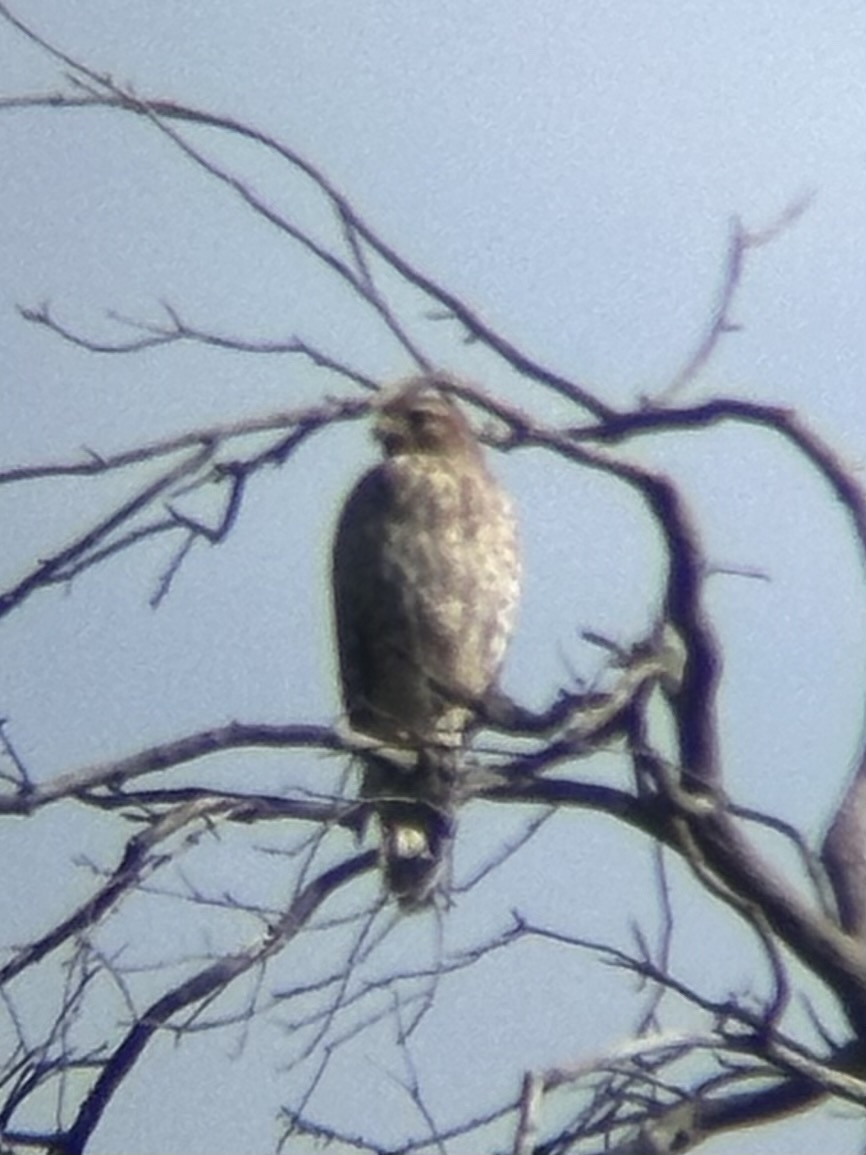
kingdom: Animalia
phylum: Chordata
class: Aves
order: Accipitriformes
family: Accipitridae
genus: Buteo
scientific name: Buteo lineatus
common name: Red-shouldered hawk
